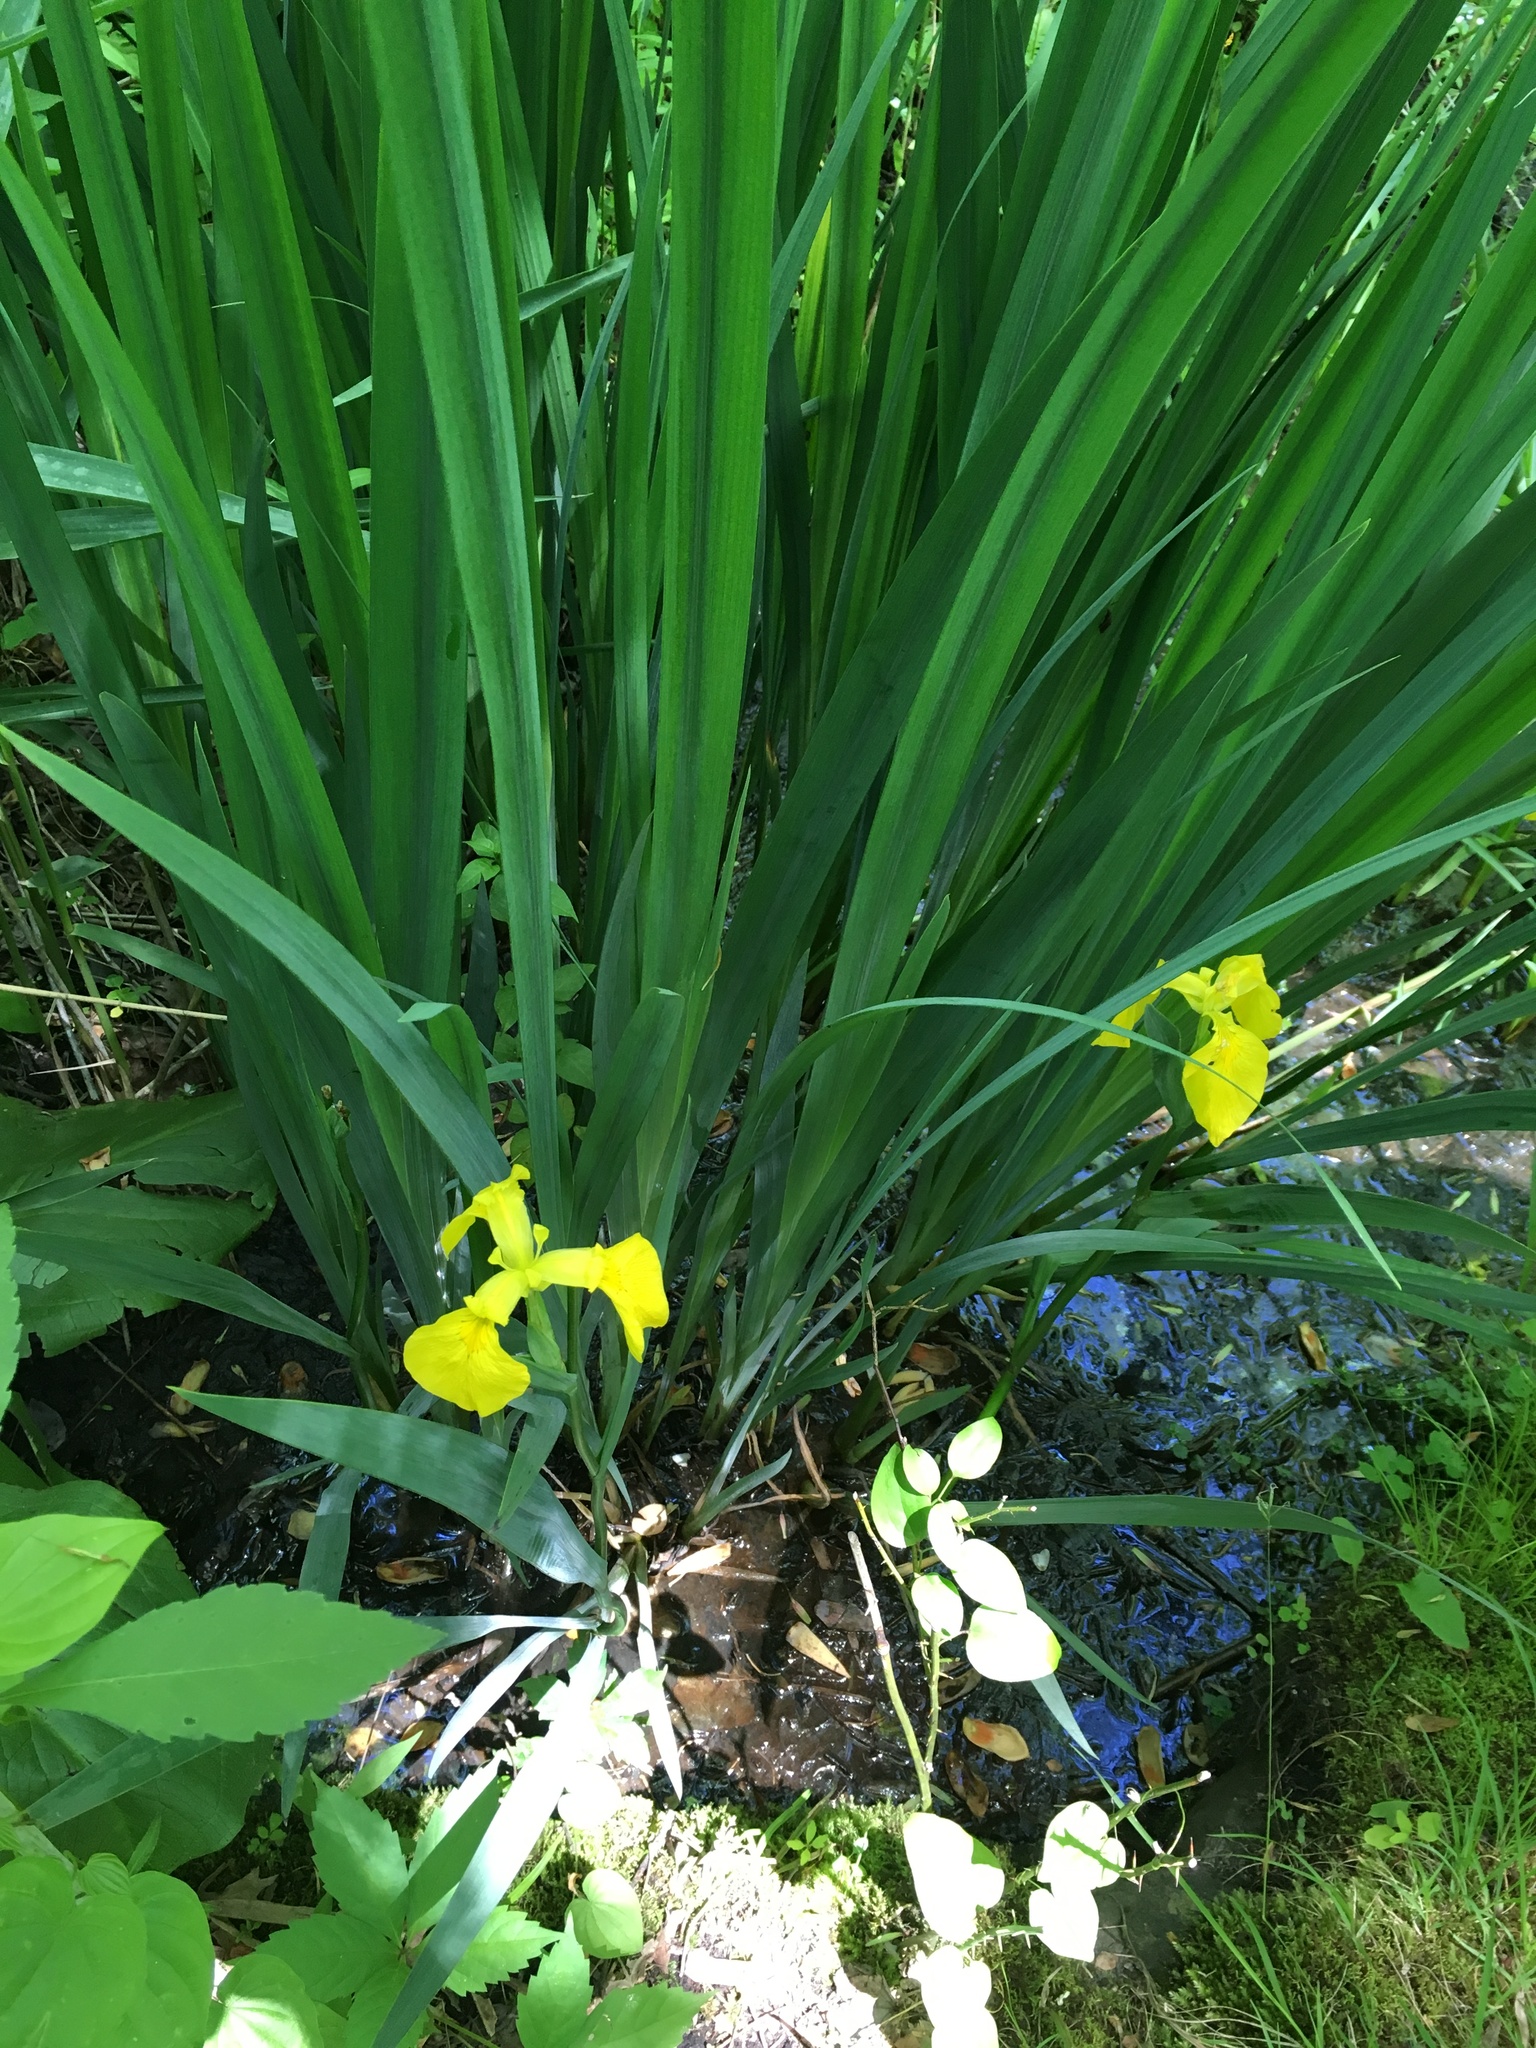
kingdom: Plantae
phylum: Tracheophyta
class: Liliopsida
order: Asparagales
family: Iridaceae
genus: Iris
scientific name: Iris pseudacorus
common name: Yellow flag
